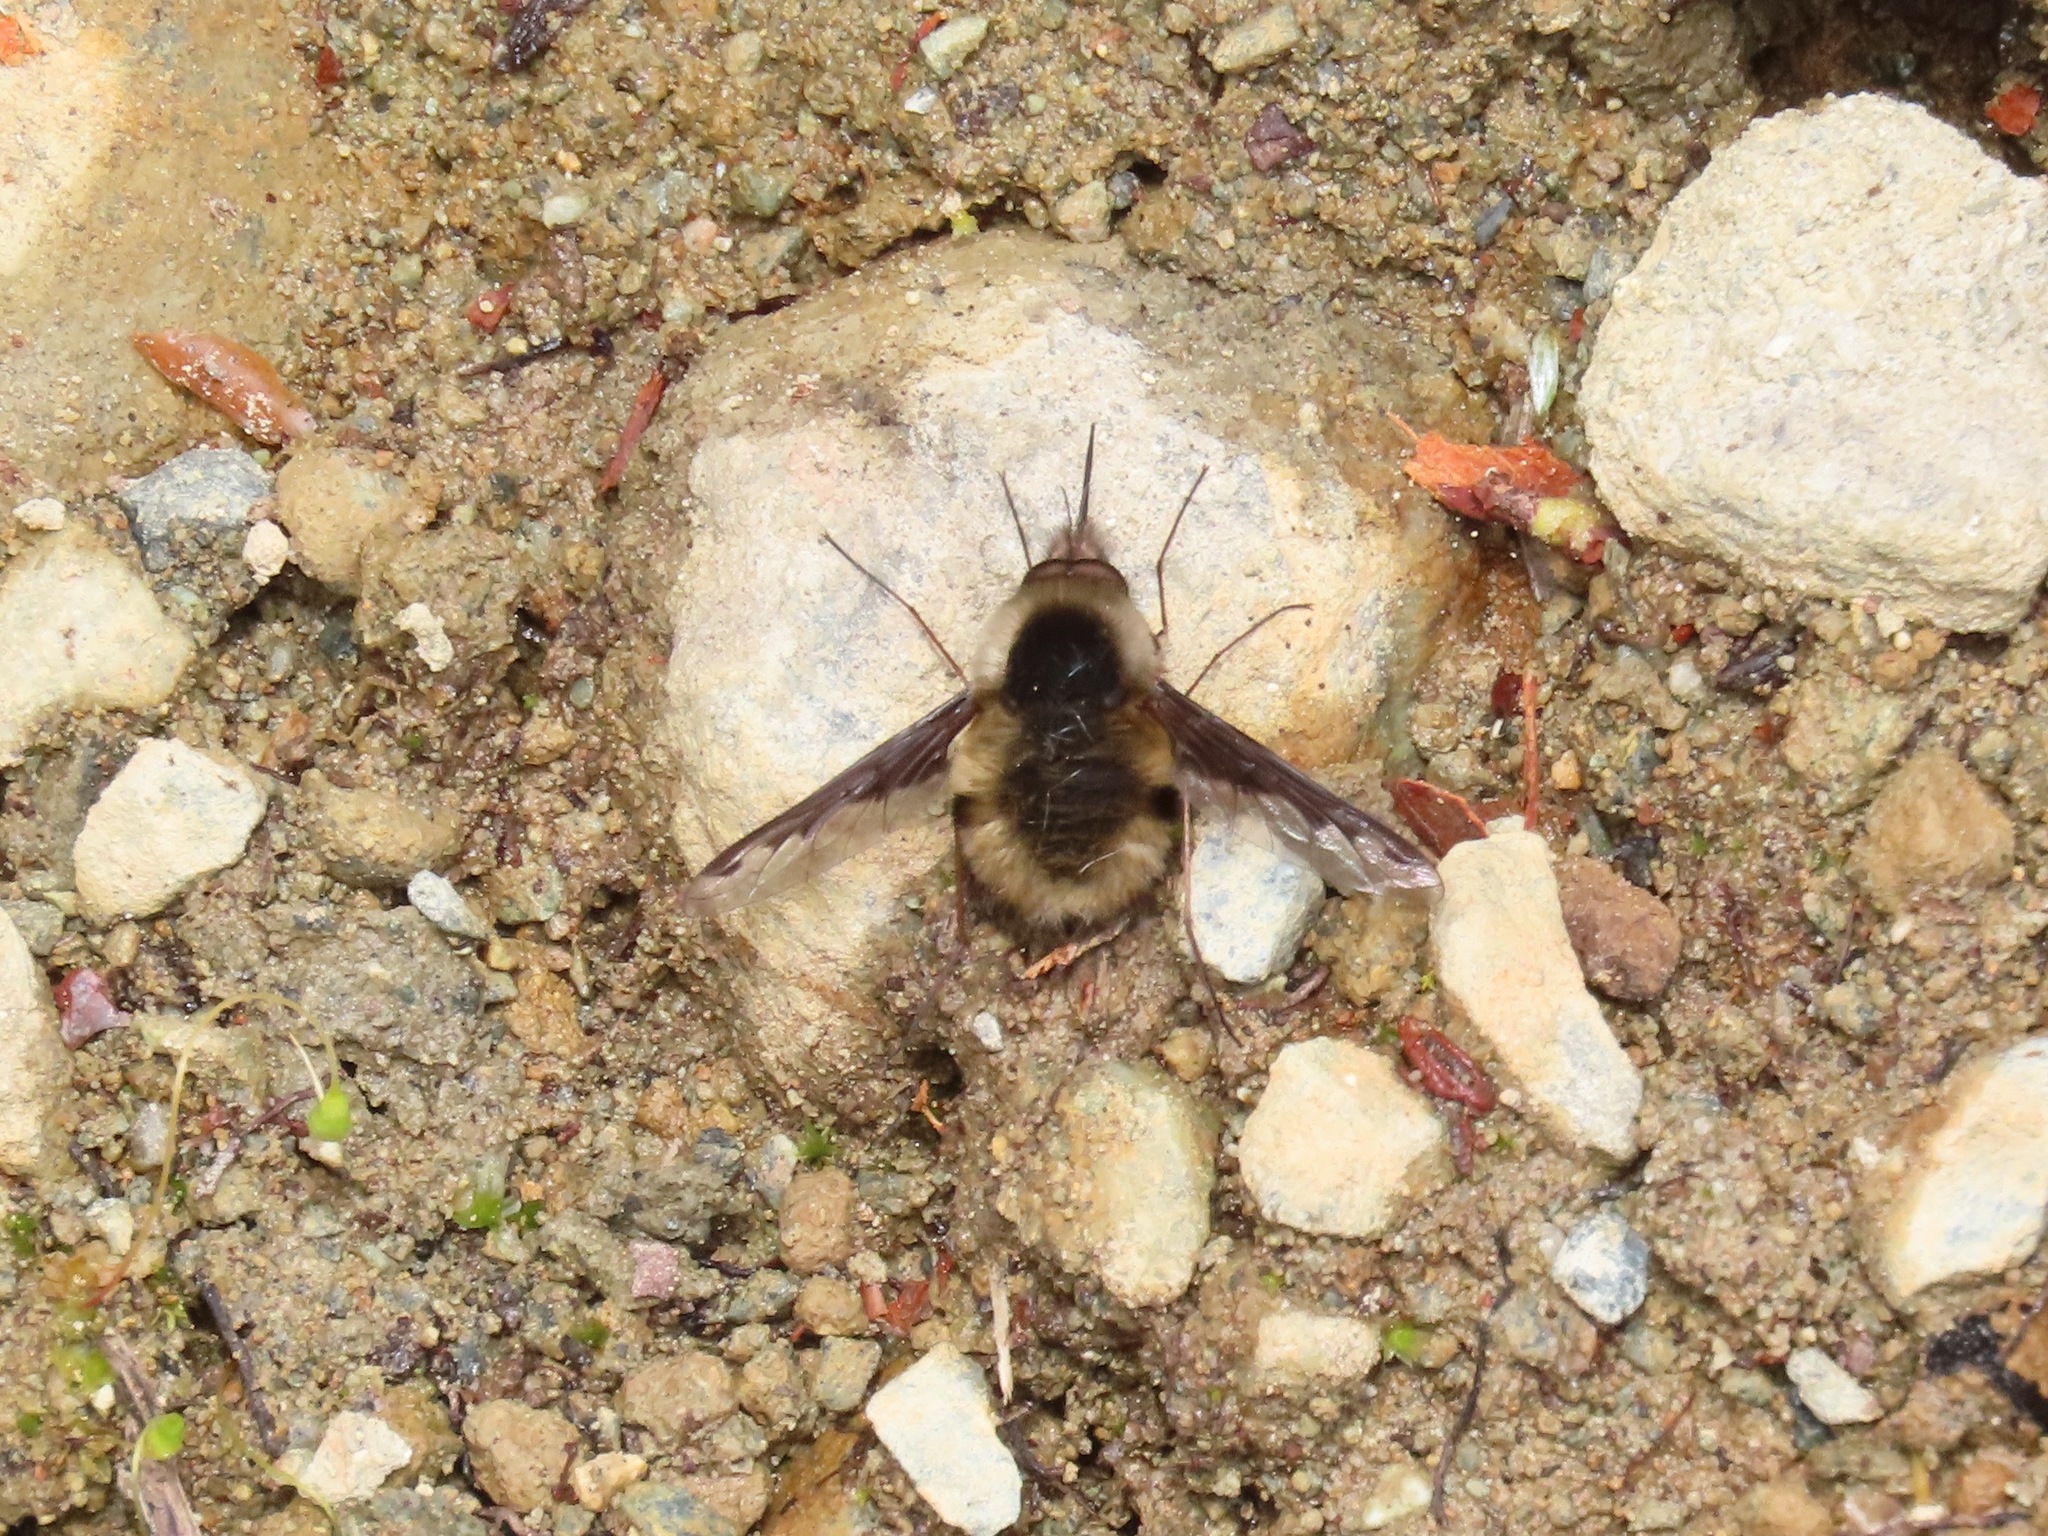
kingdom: Animalia
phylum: Arthropoda
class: Insecta
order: Diptera
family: Bombyliidae
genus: Bombylius
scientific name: Bombylius major
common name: Bee fly
